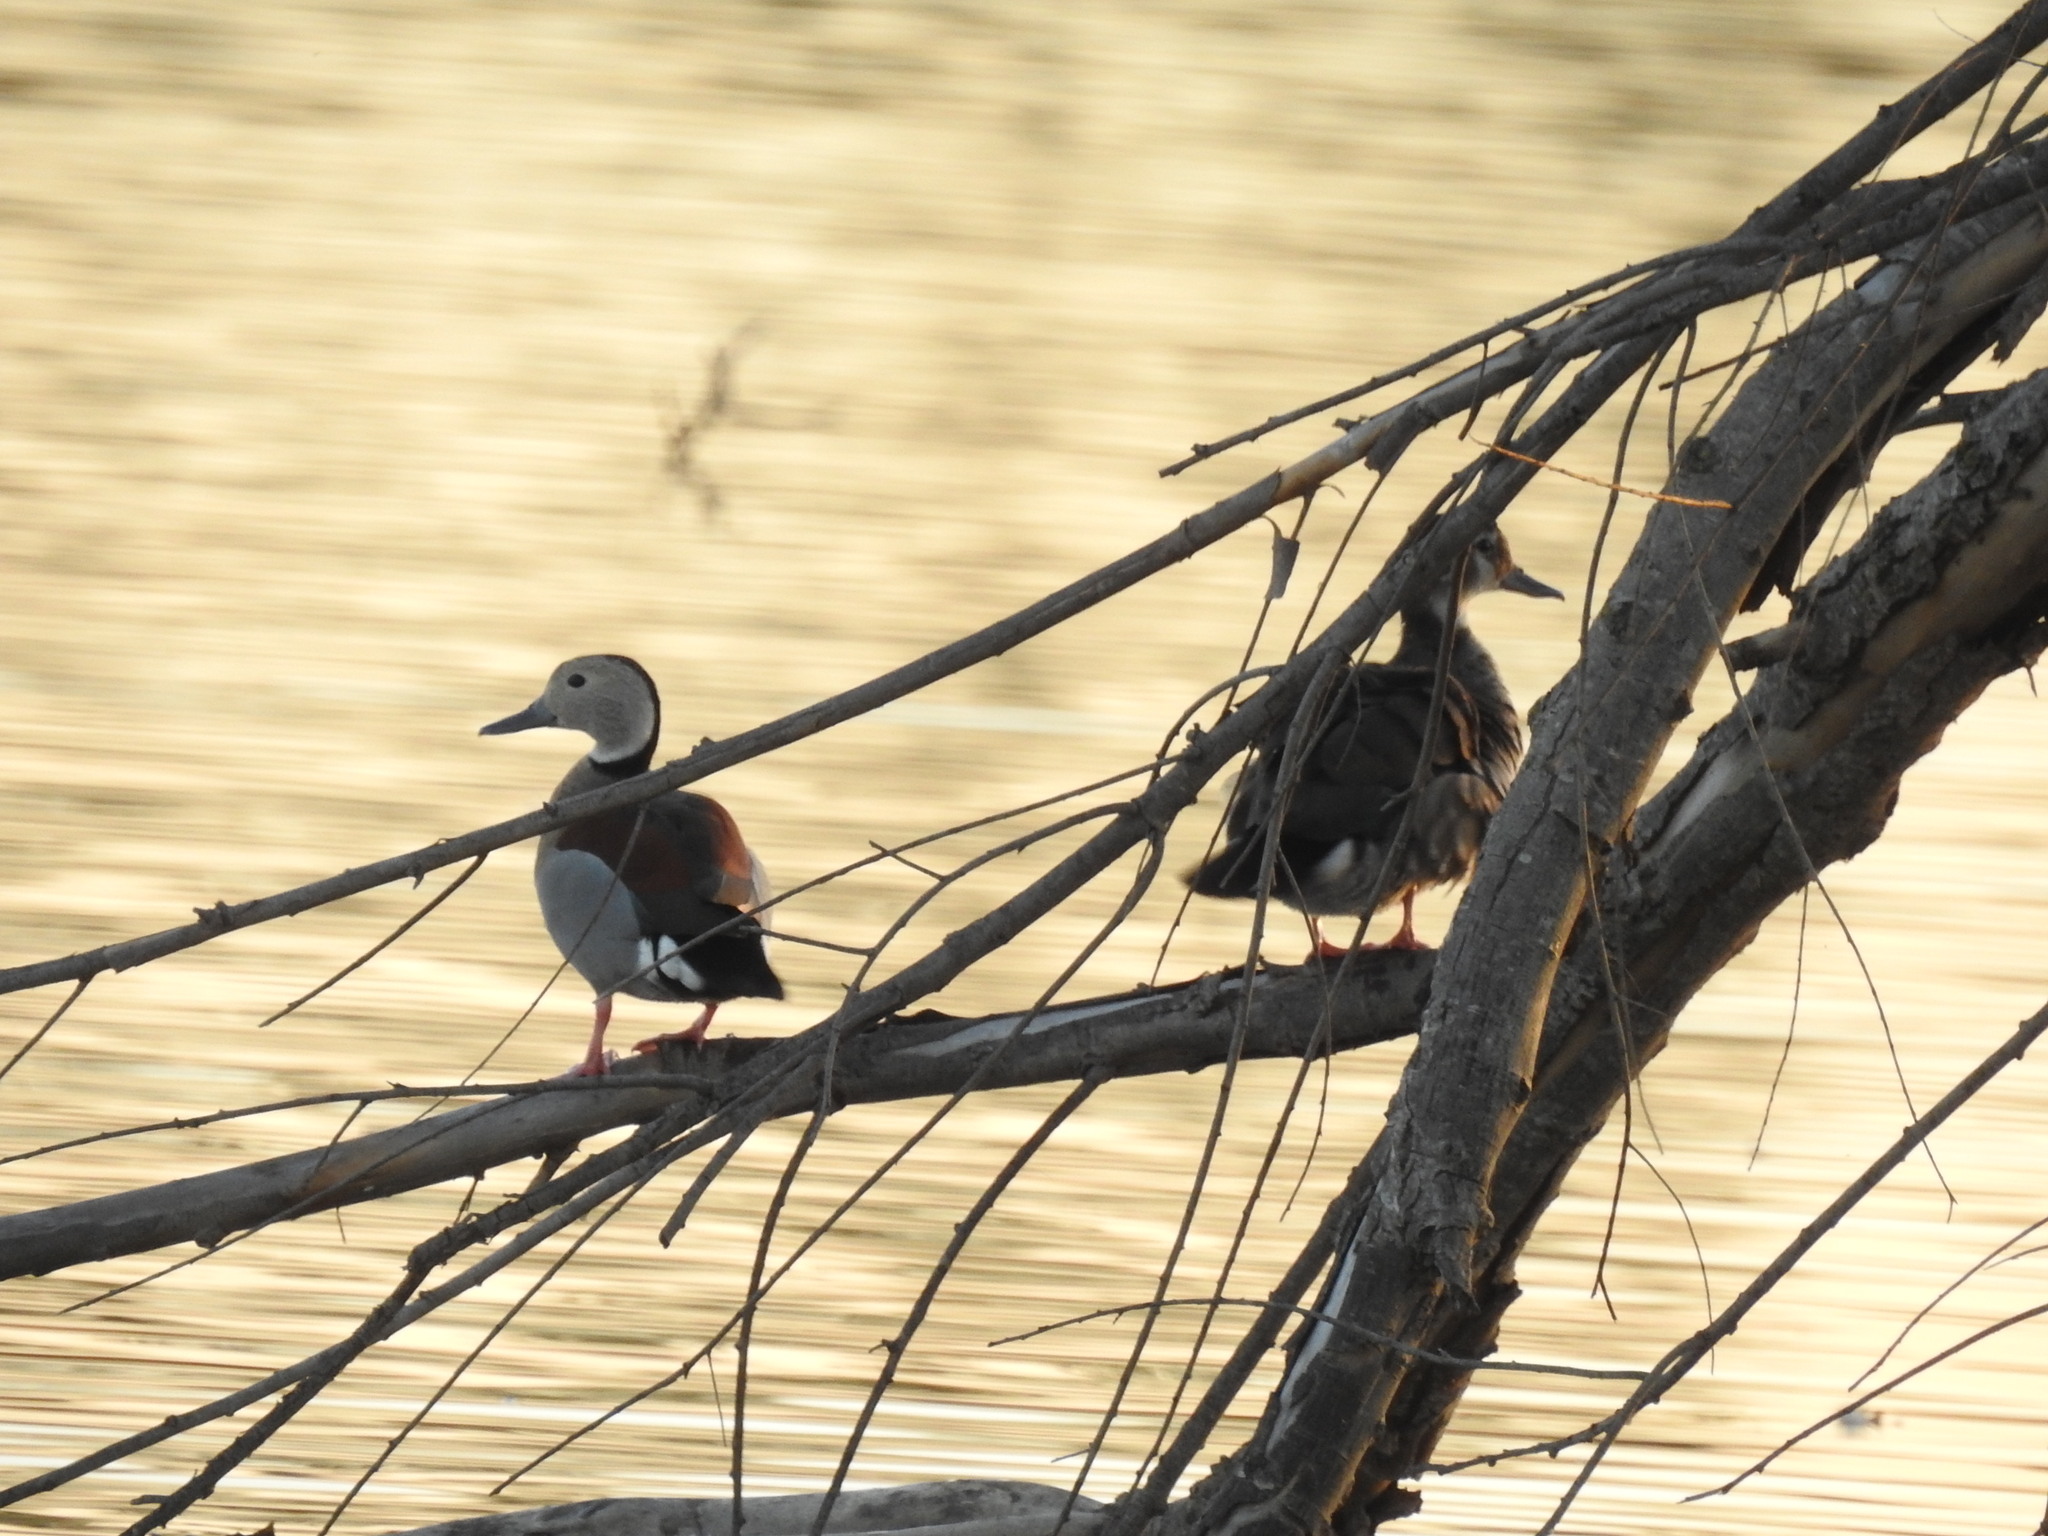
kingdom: Animalia
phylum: Chordata
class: Aves
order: Anseriformes
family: Anatidae
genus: Callonetta
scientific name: Callonetta leucophrys
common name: Ringed teal
